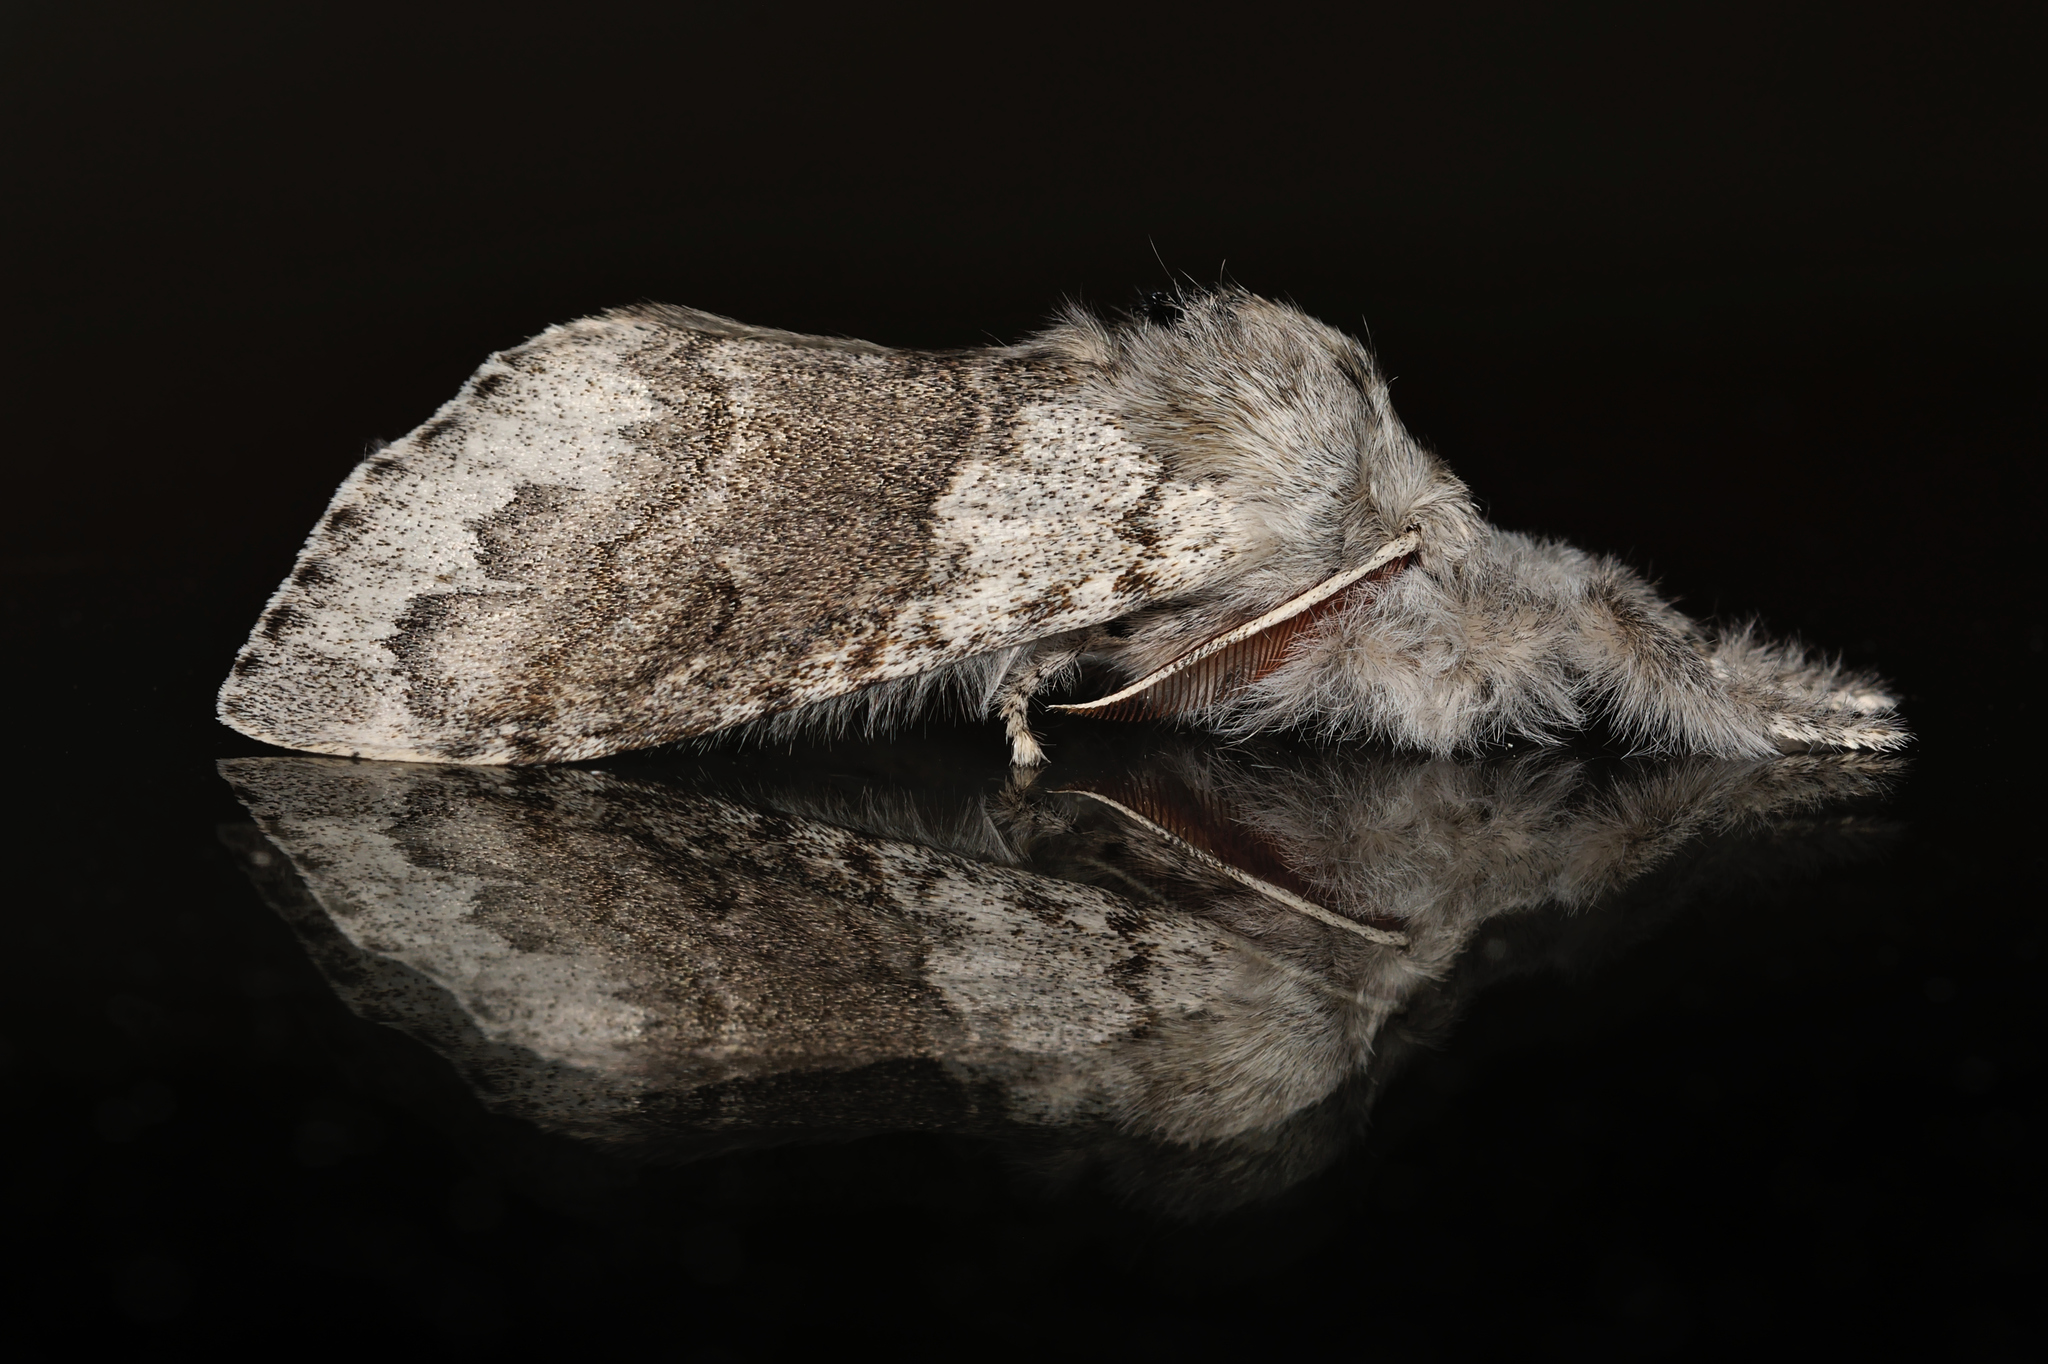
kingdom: Animalia
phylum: Arthropoda
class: Insecta
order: Lepidoptera
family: Erebidae
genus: Calliteara
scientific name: Calliteara pudibunda
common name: Pale tussock
